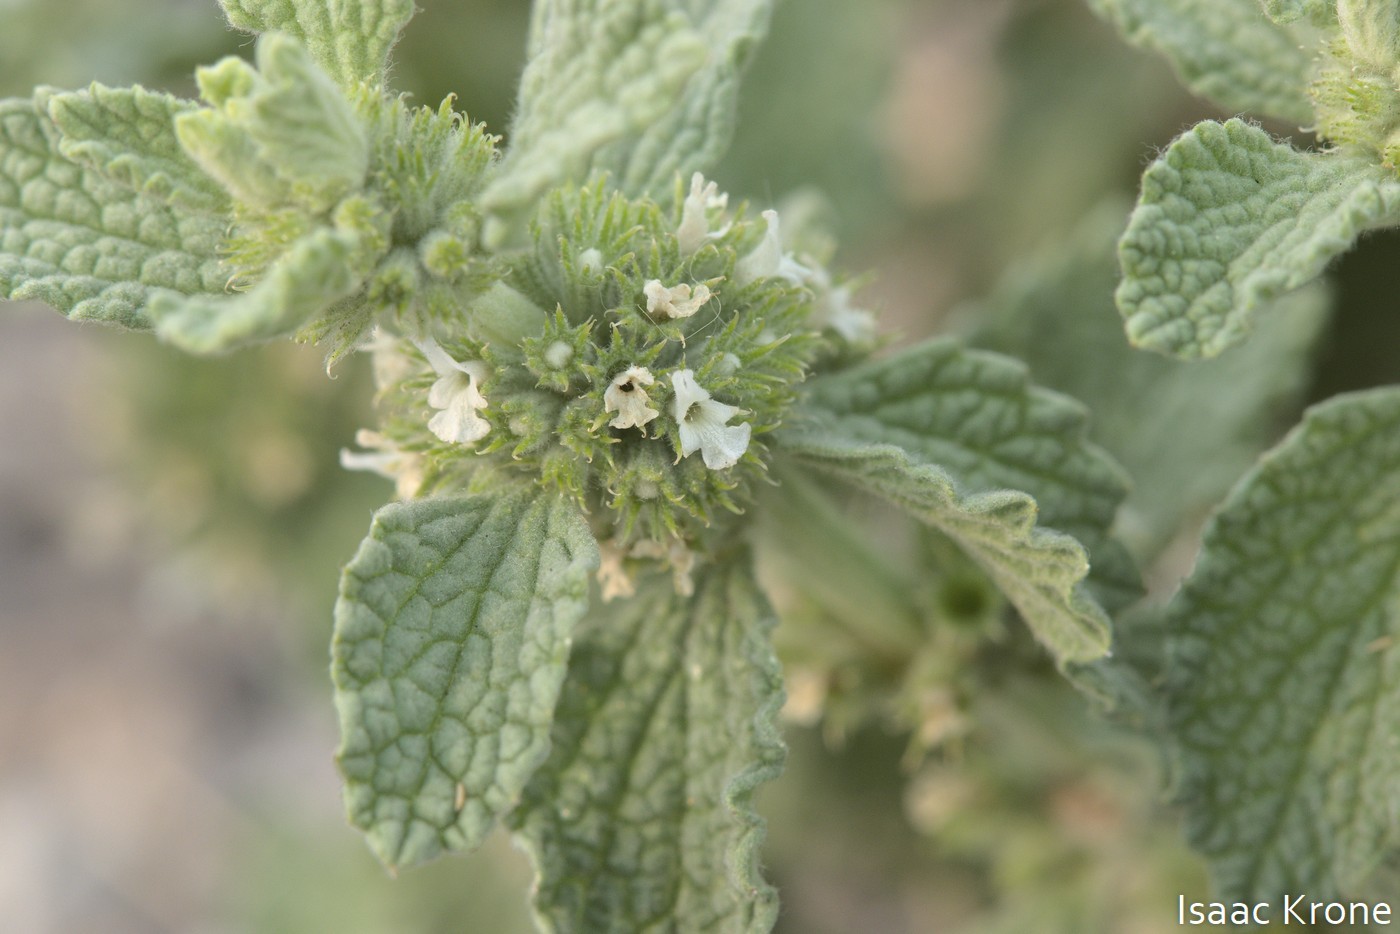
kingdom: Plantae
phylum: Tracheophyta
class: Magnoliopsida
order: Lamiales
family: Lamiaceae
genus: Marrubium
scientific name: Marrubium vulgare
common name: Horehound
